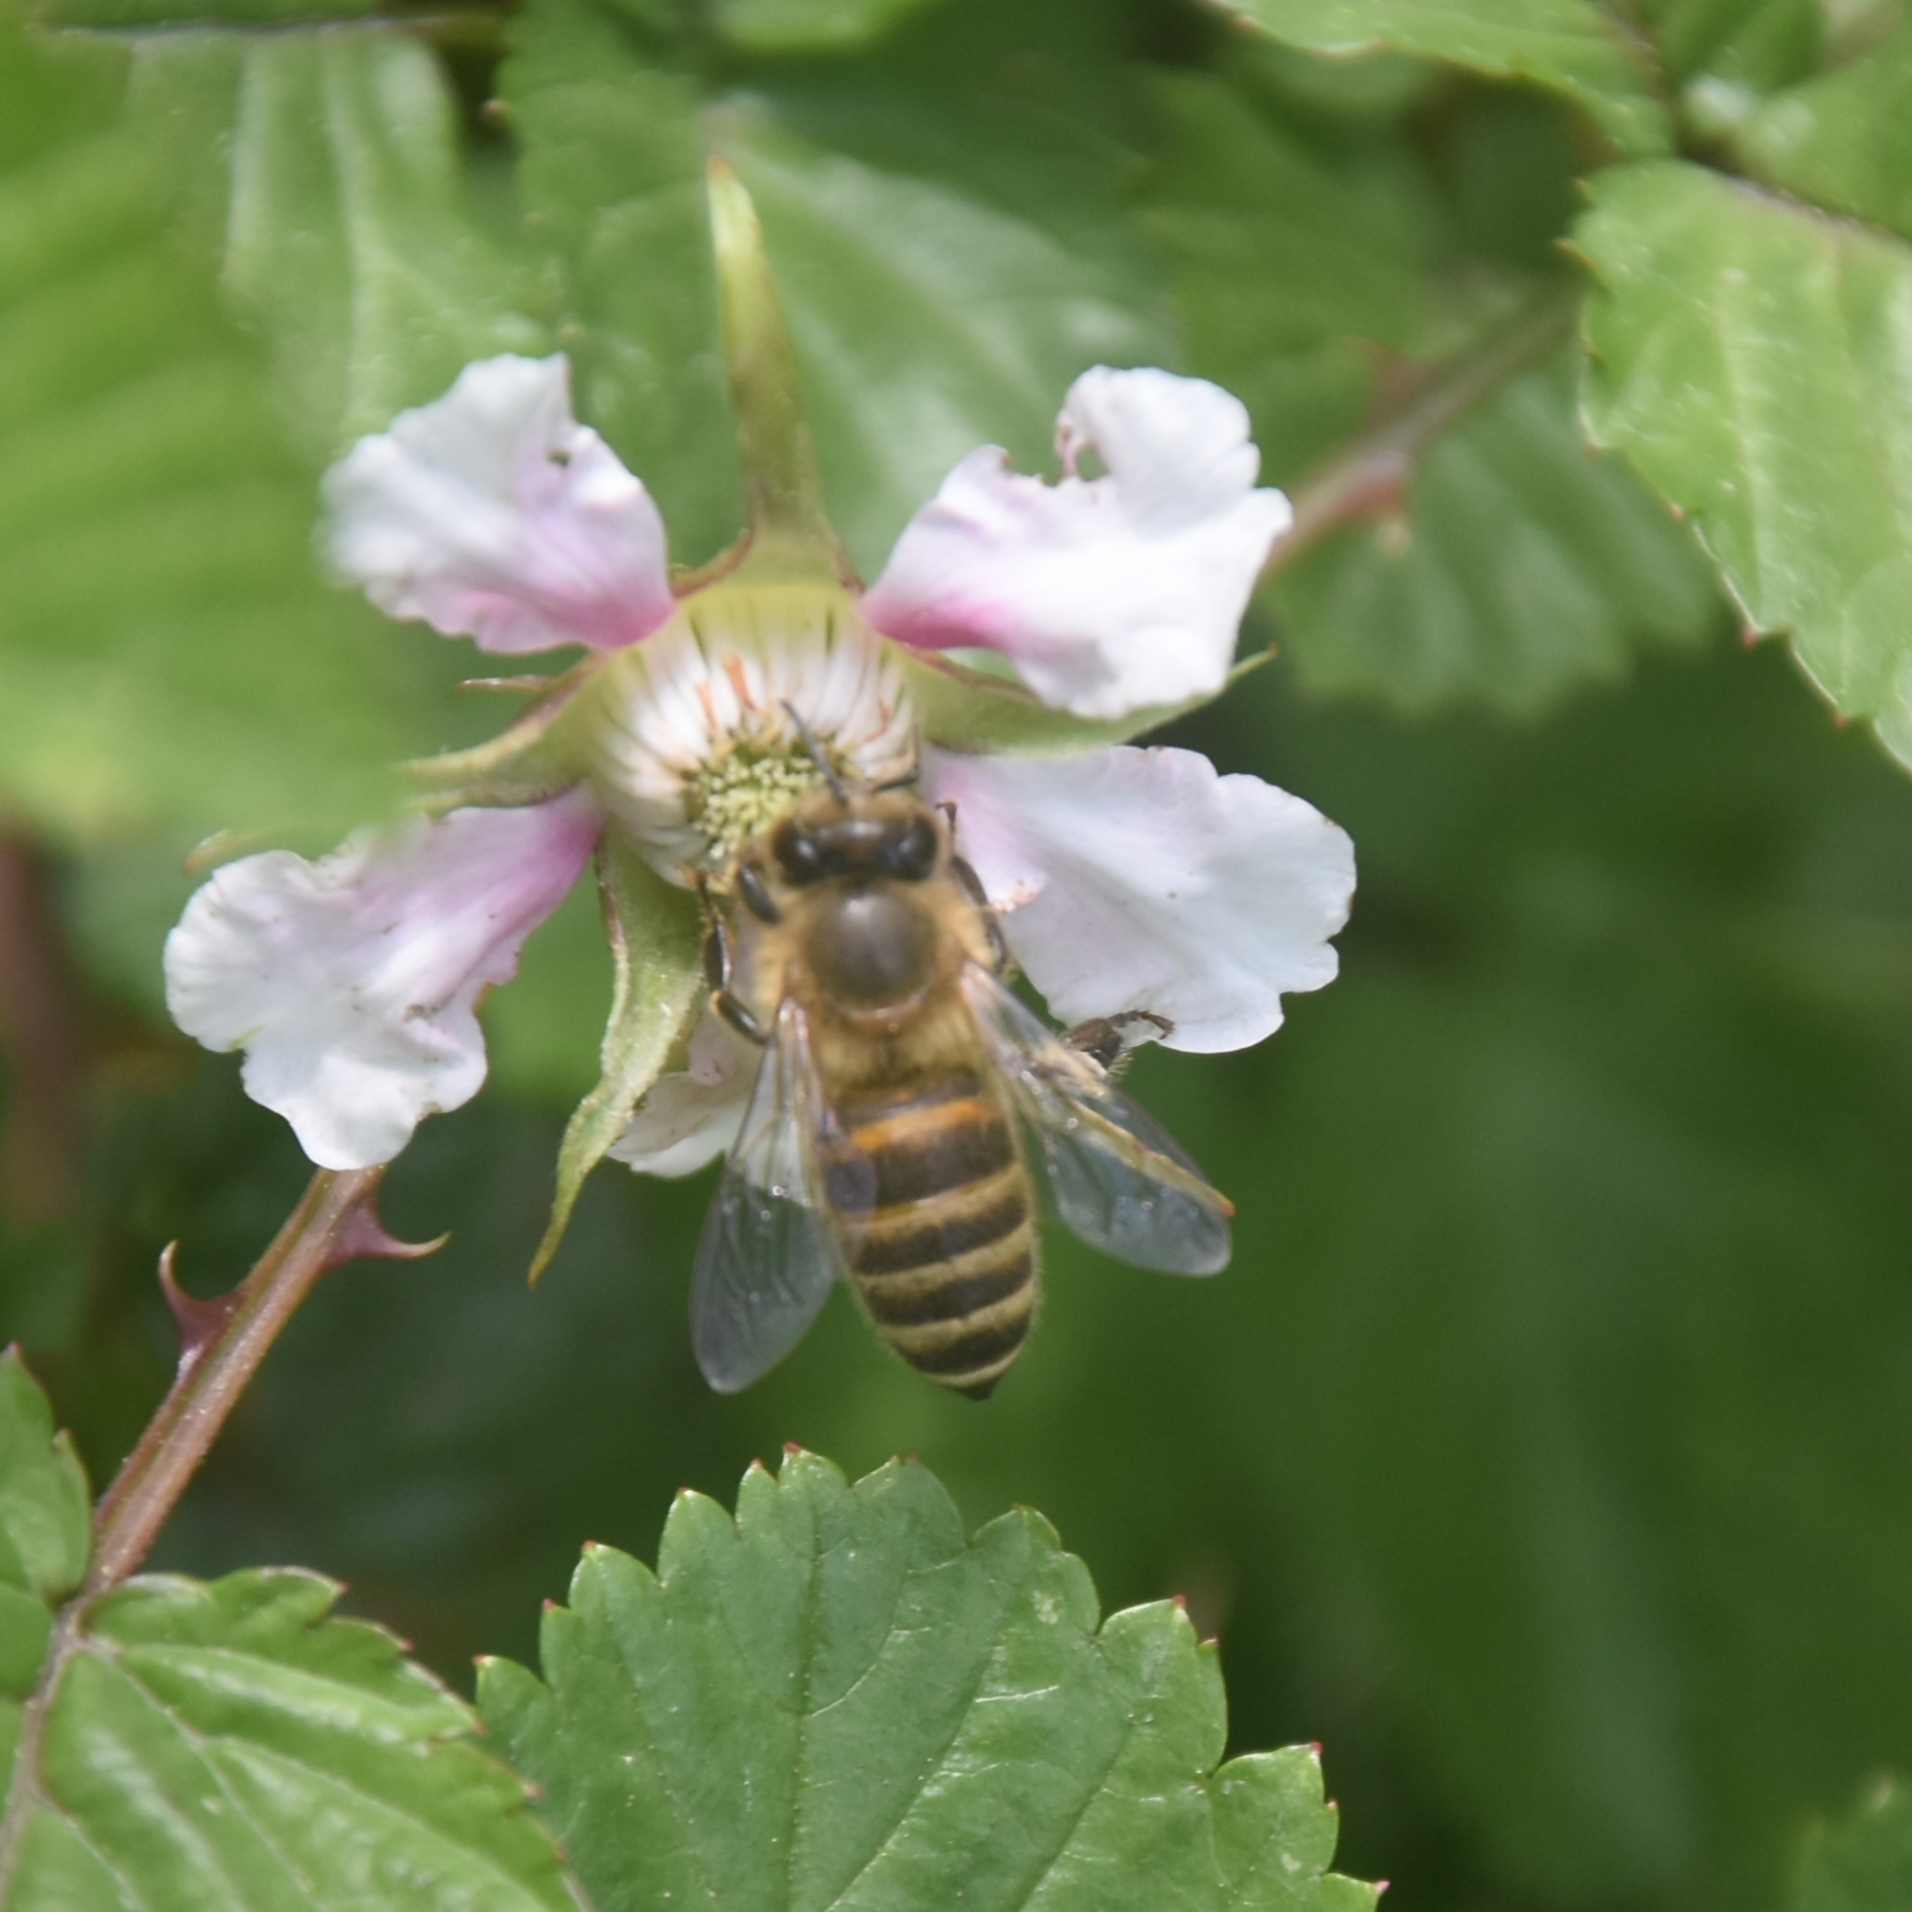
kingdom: Animalia
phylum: Arthropoda
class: Insecta
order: Hymenoptera
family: Apidae
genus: Apis
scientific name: Apis cerana
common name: Honey bee
